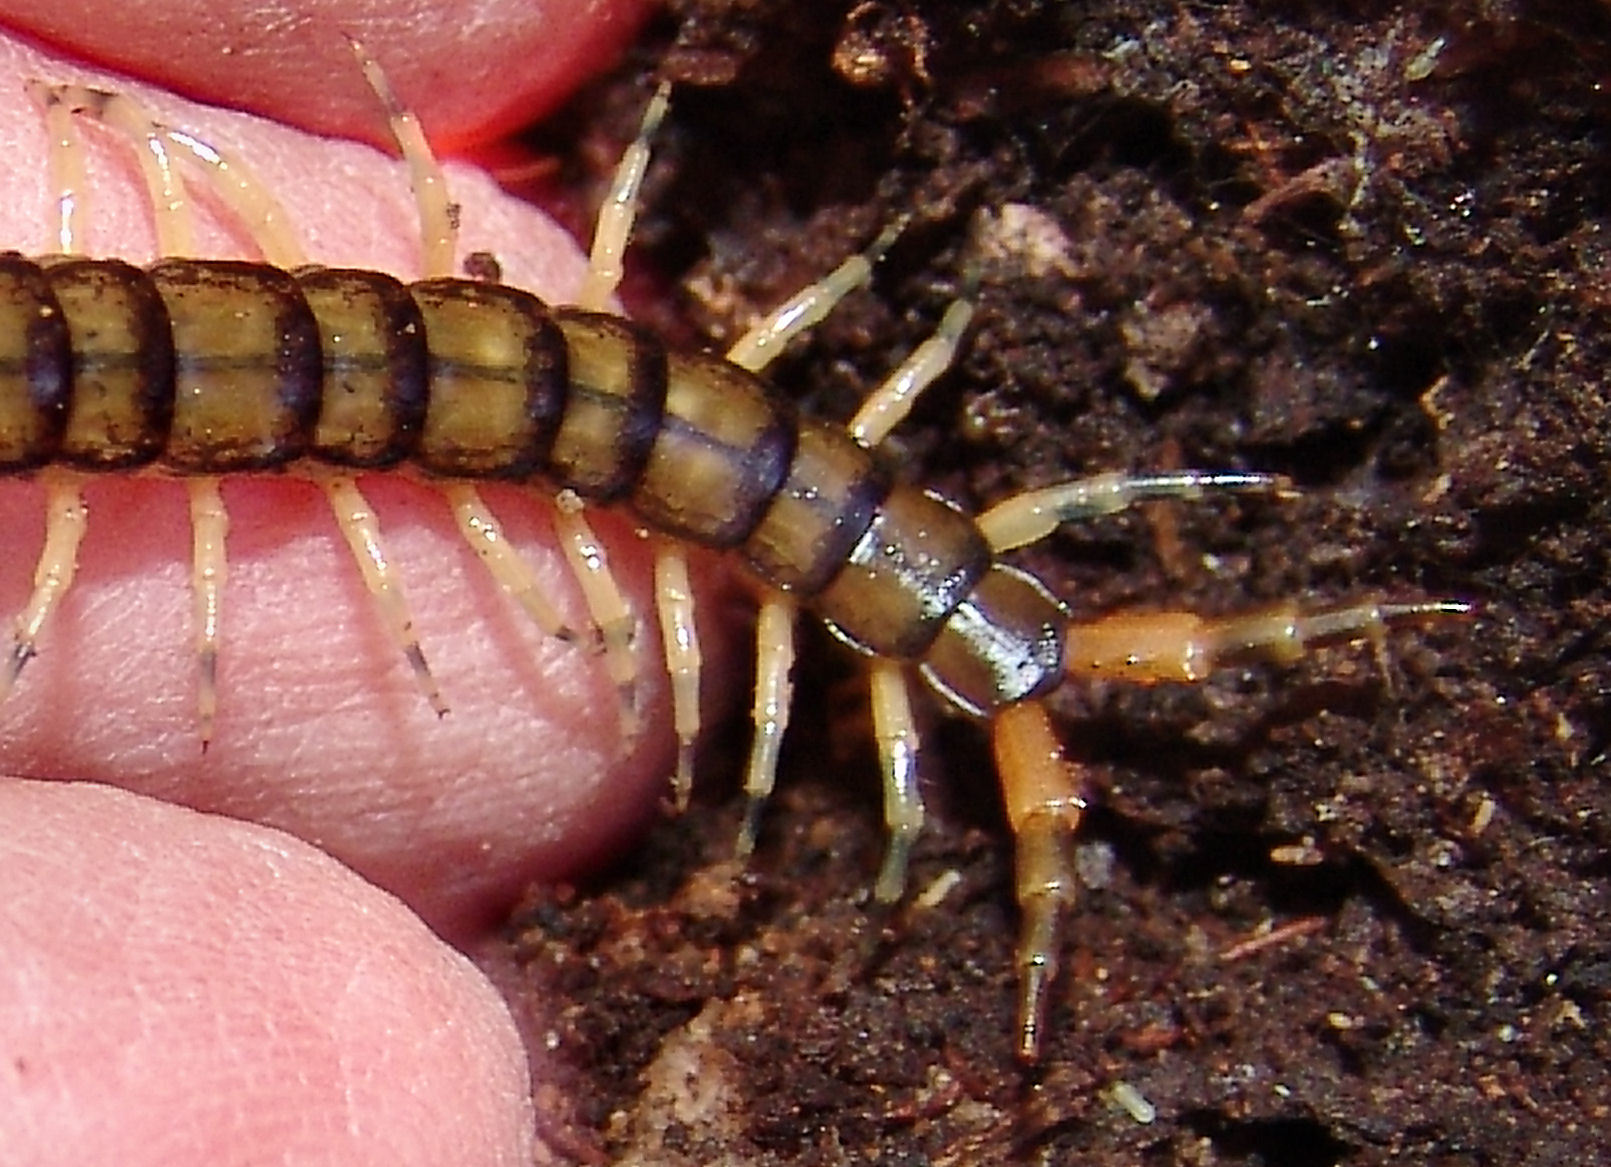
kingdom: Animalia
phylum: Arthropoda
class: Chilopoda
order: Scolopendromorpha
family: Scolopendridae
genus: Hemiscolopendra
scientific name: Hemiscolopendra marginata
